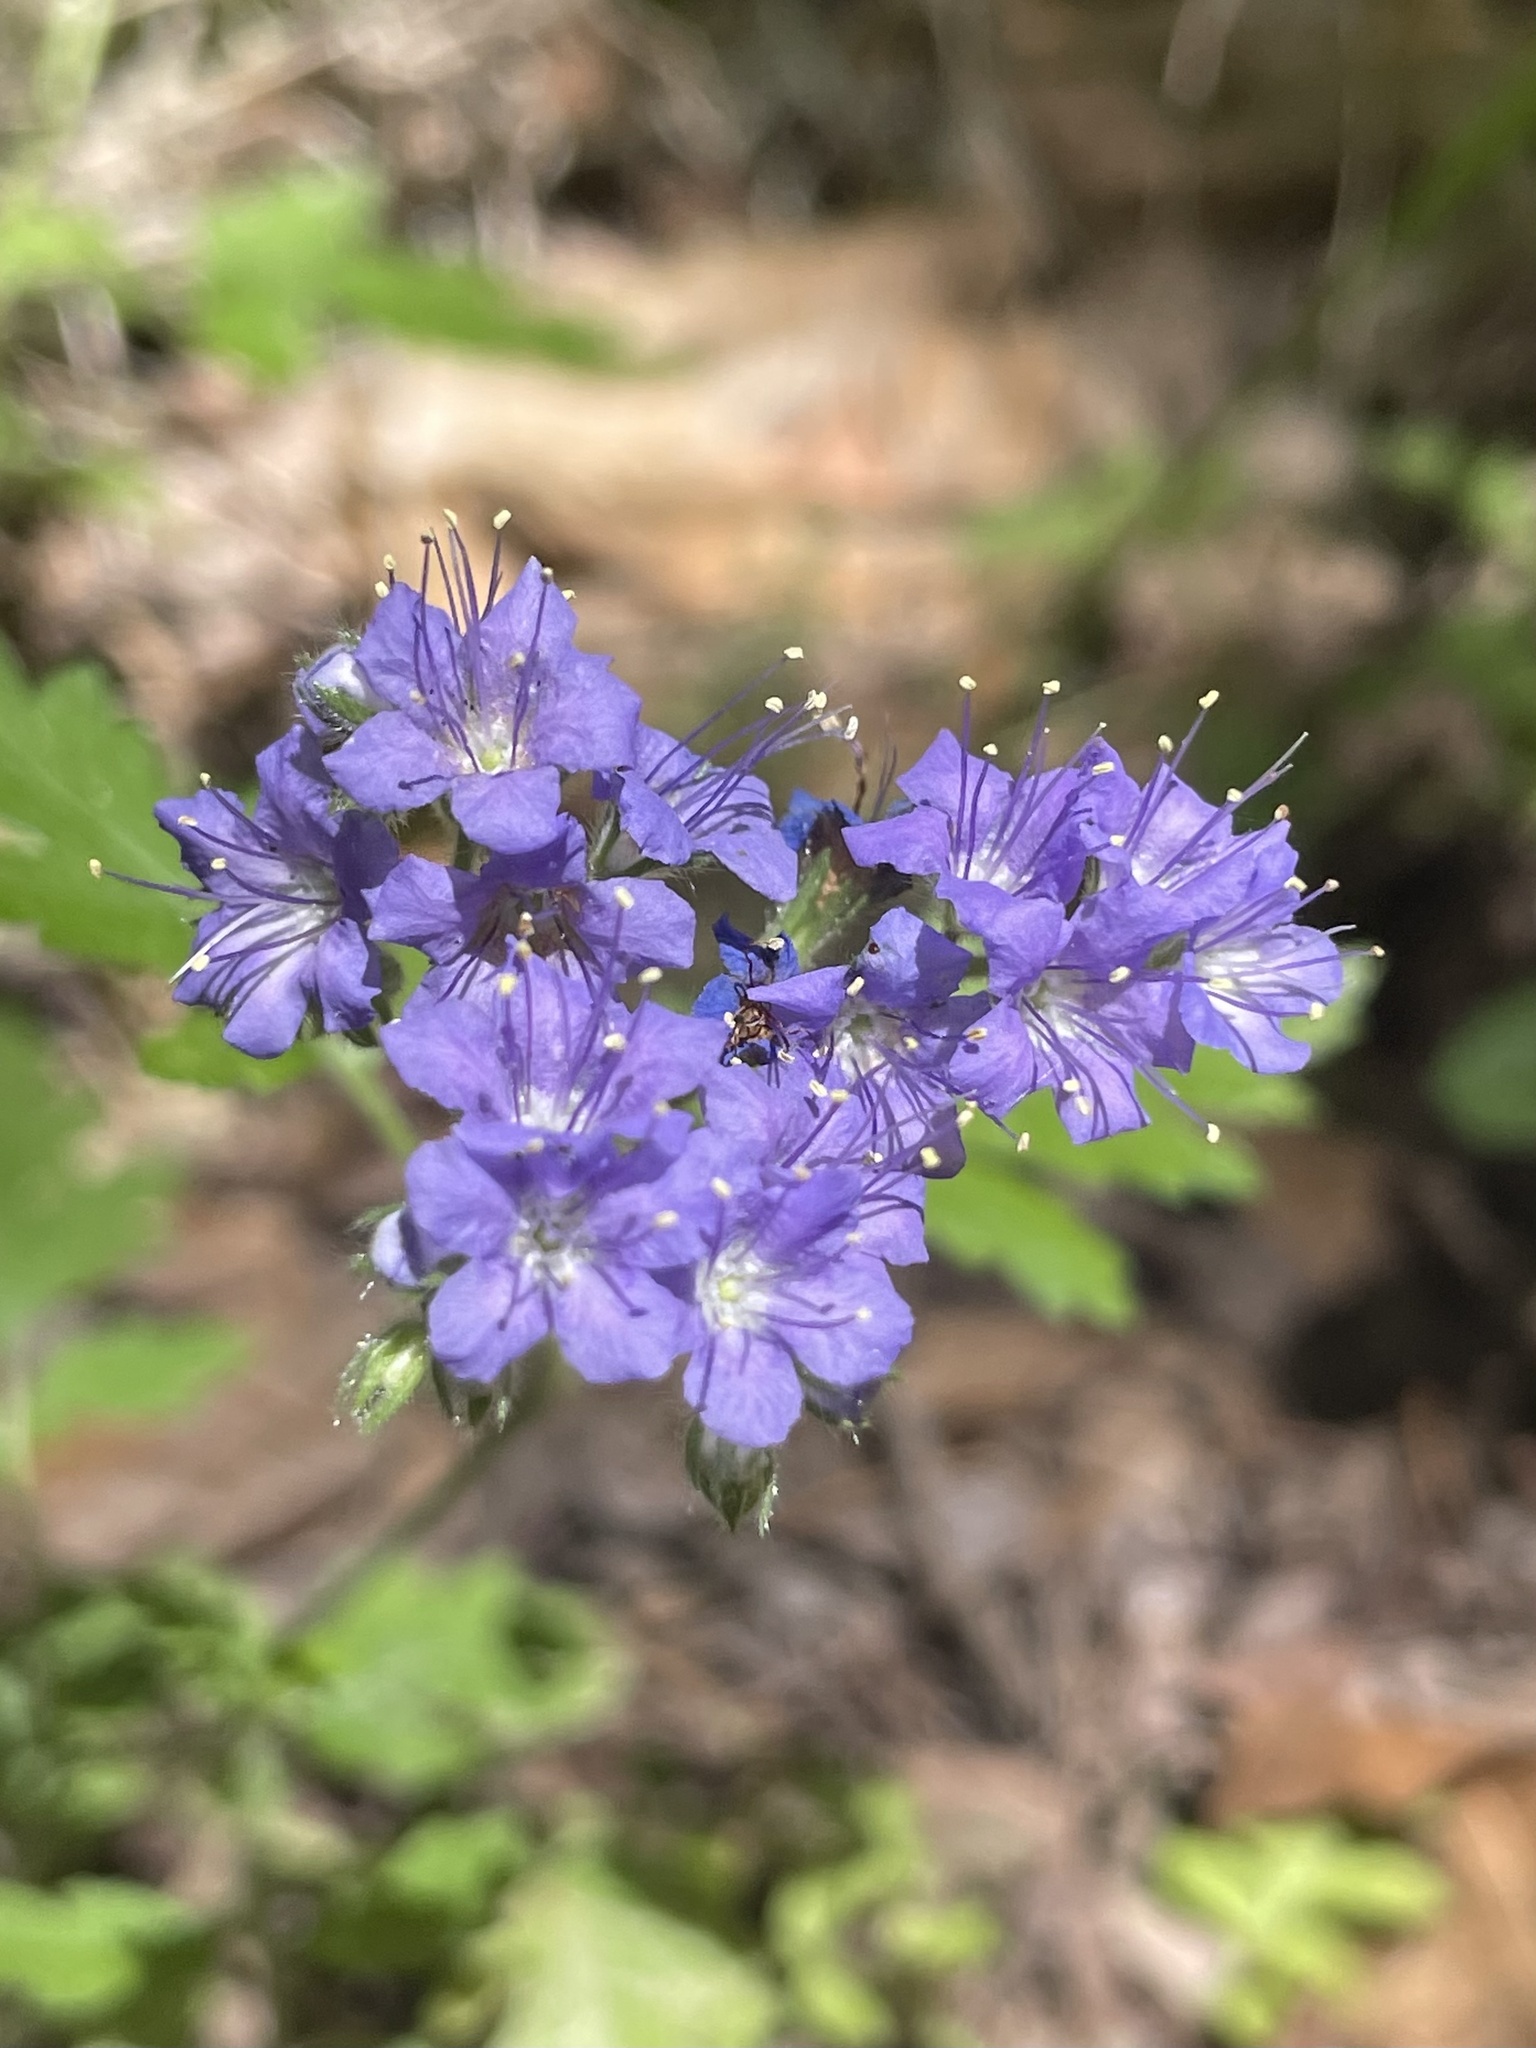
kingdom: Plantae
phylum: Tracheophyta
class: Magnoliopsida
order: Boraginales
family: Hydrophyllaceae
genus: Phacelia
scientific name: Phacelia congesta
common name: Blue curls
